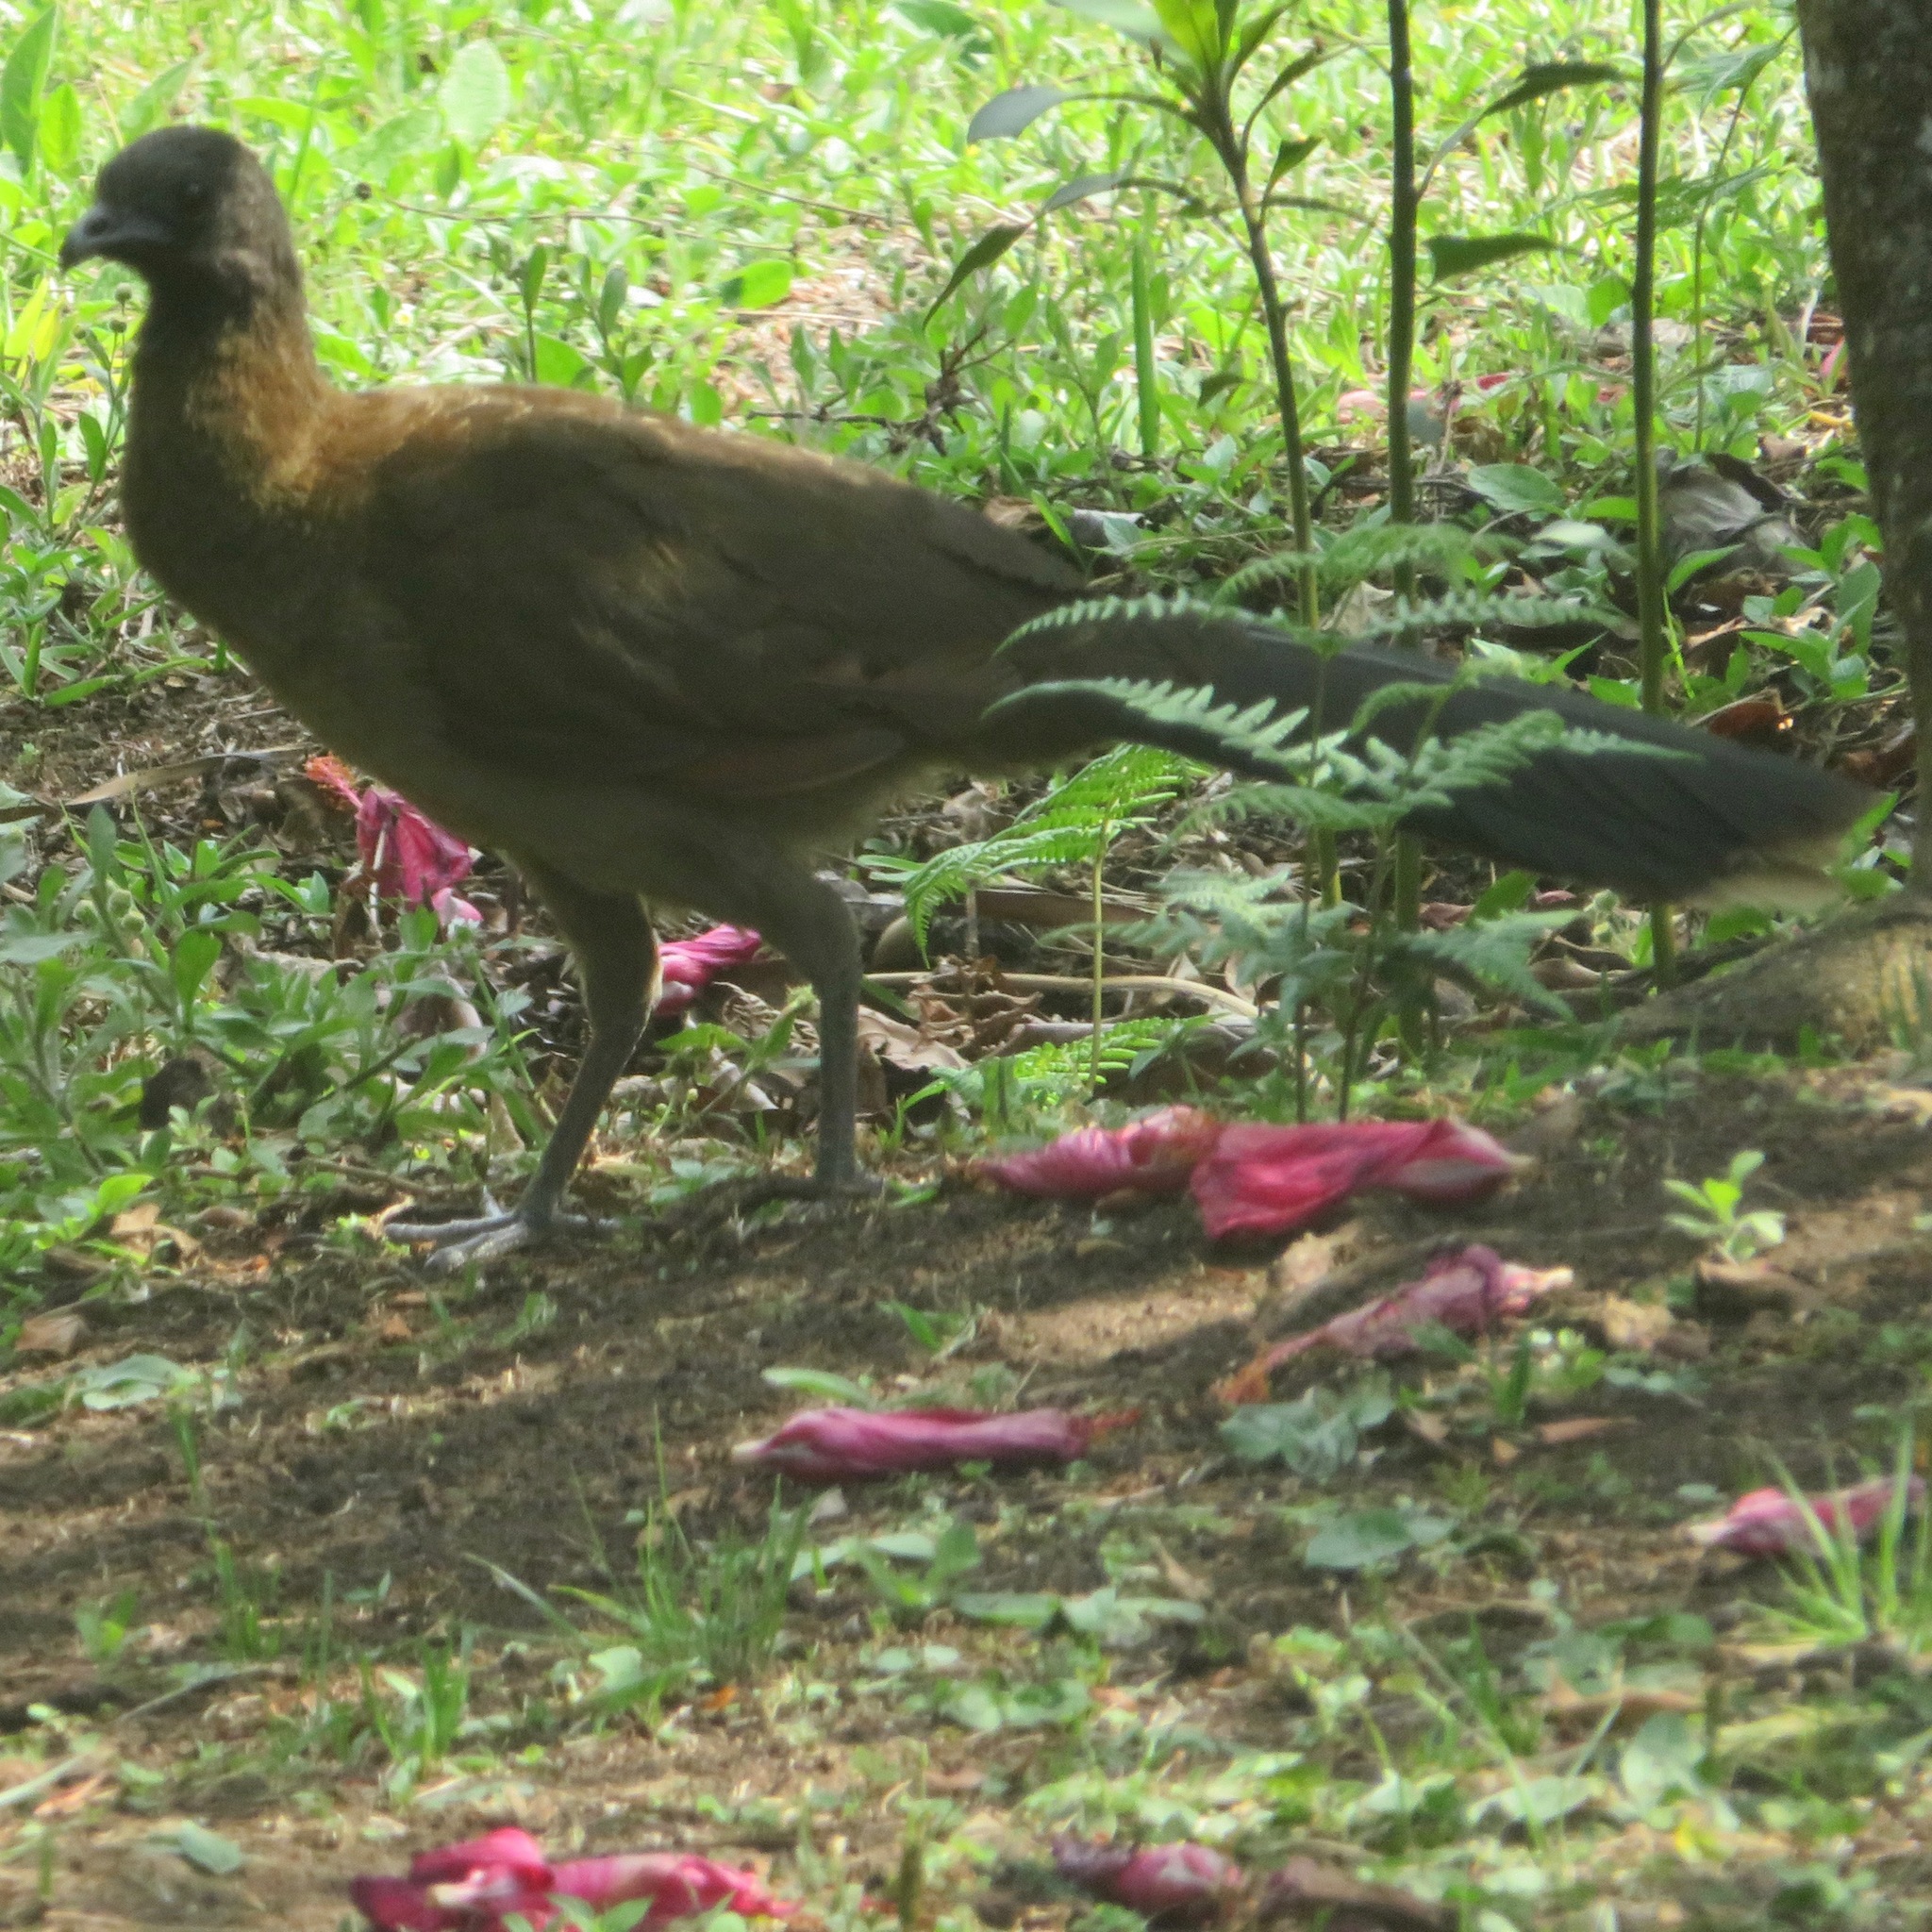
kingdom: Animalia
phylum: Chordata
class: Aves
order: Galliformes
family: Cracidae
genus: Ortalis
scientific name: Ortalis cinereiceps
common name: Grey-headed chachalaca
